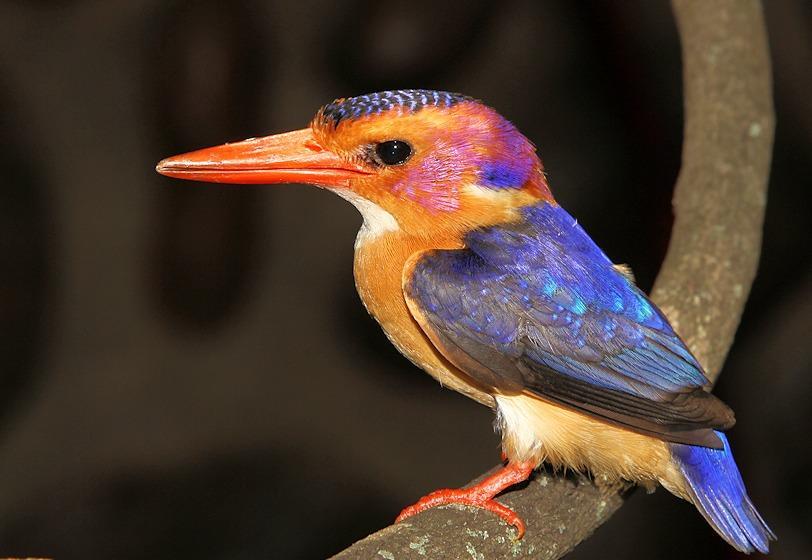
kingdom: Animalia
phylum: Chordata
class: Aves
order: Coraciiformes
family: Alcedinidae
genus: Ispidina
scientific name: Ispidina picta
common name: African pygmy-kingfisher
